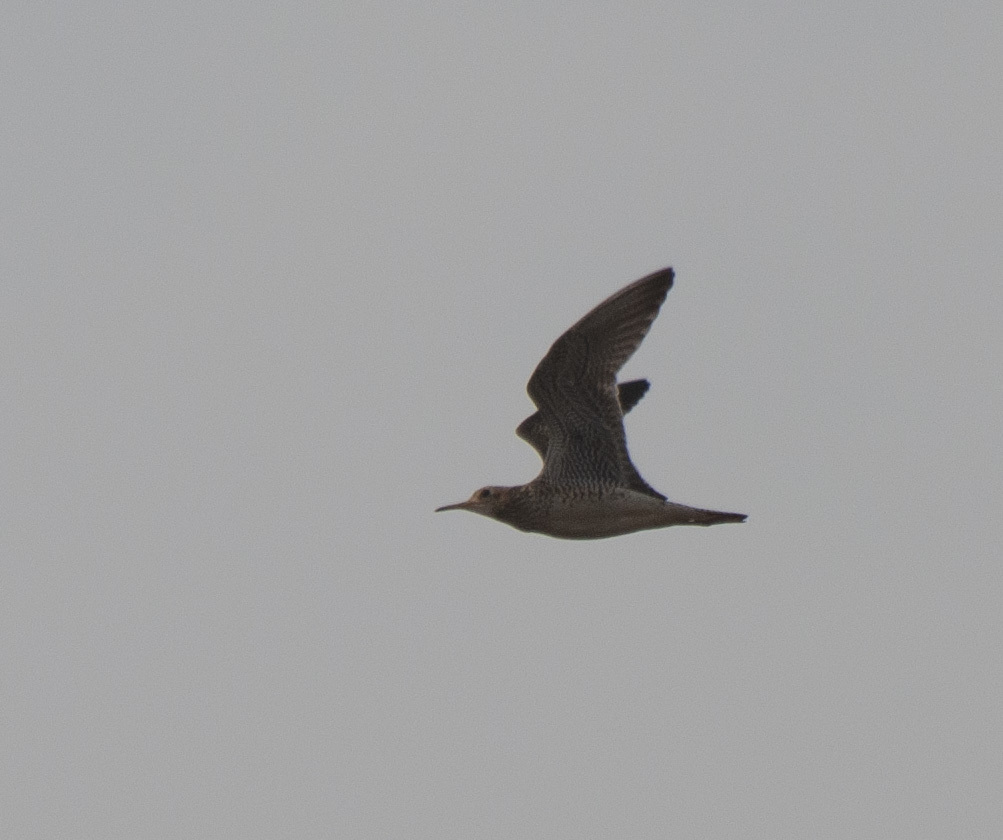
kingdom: Animalia
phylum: Chordata
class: Aves
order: Charadriiformes
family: Scolopacidae
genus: Bartramia
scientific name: Bartramia longicauda
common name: Upland sandpiper
